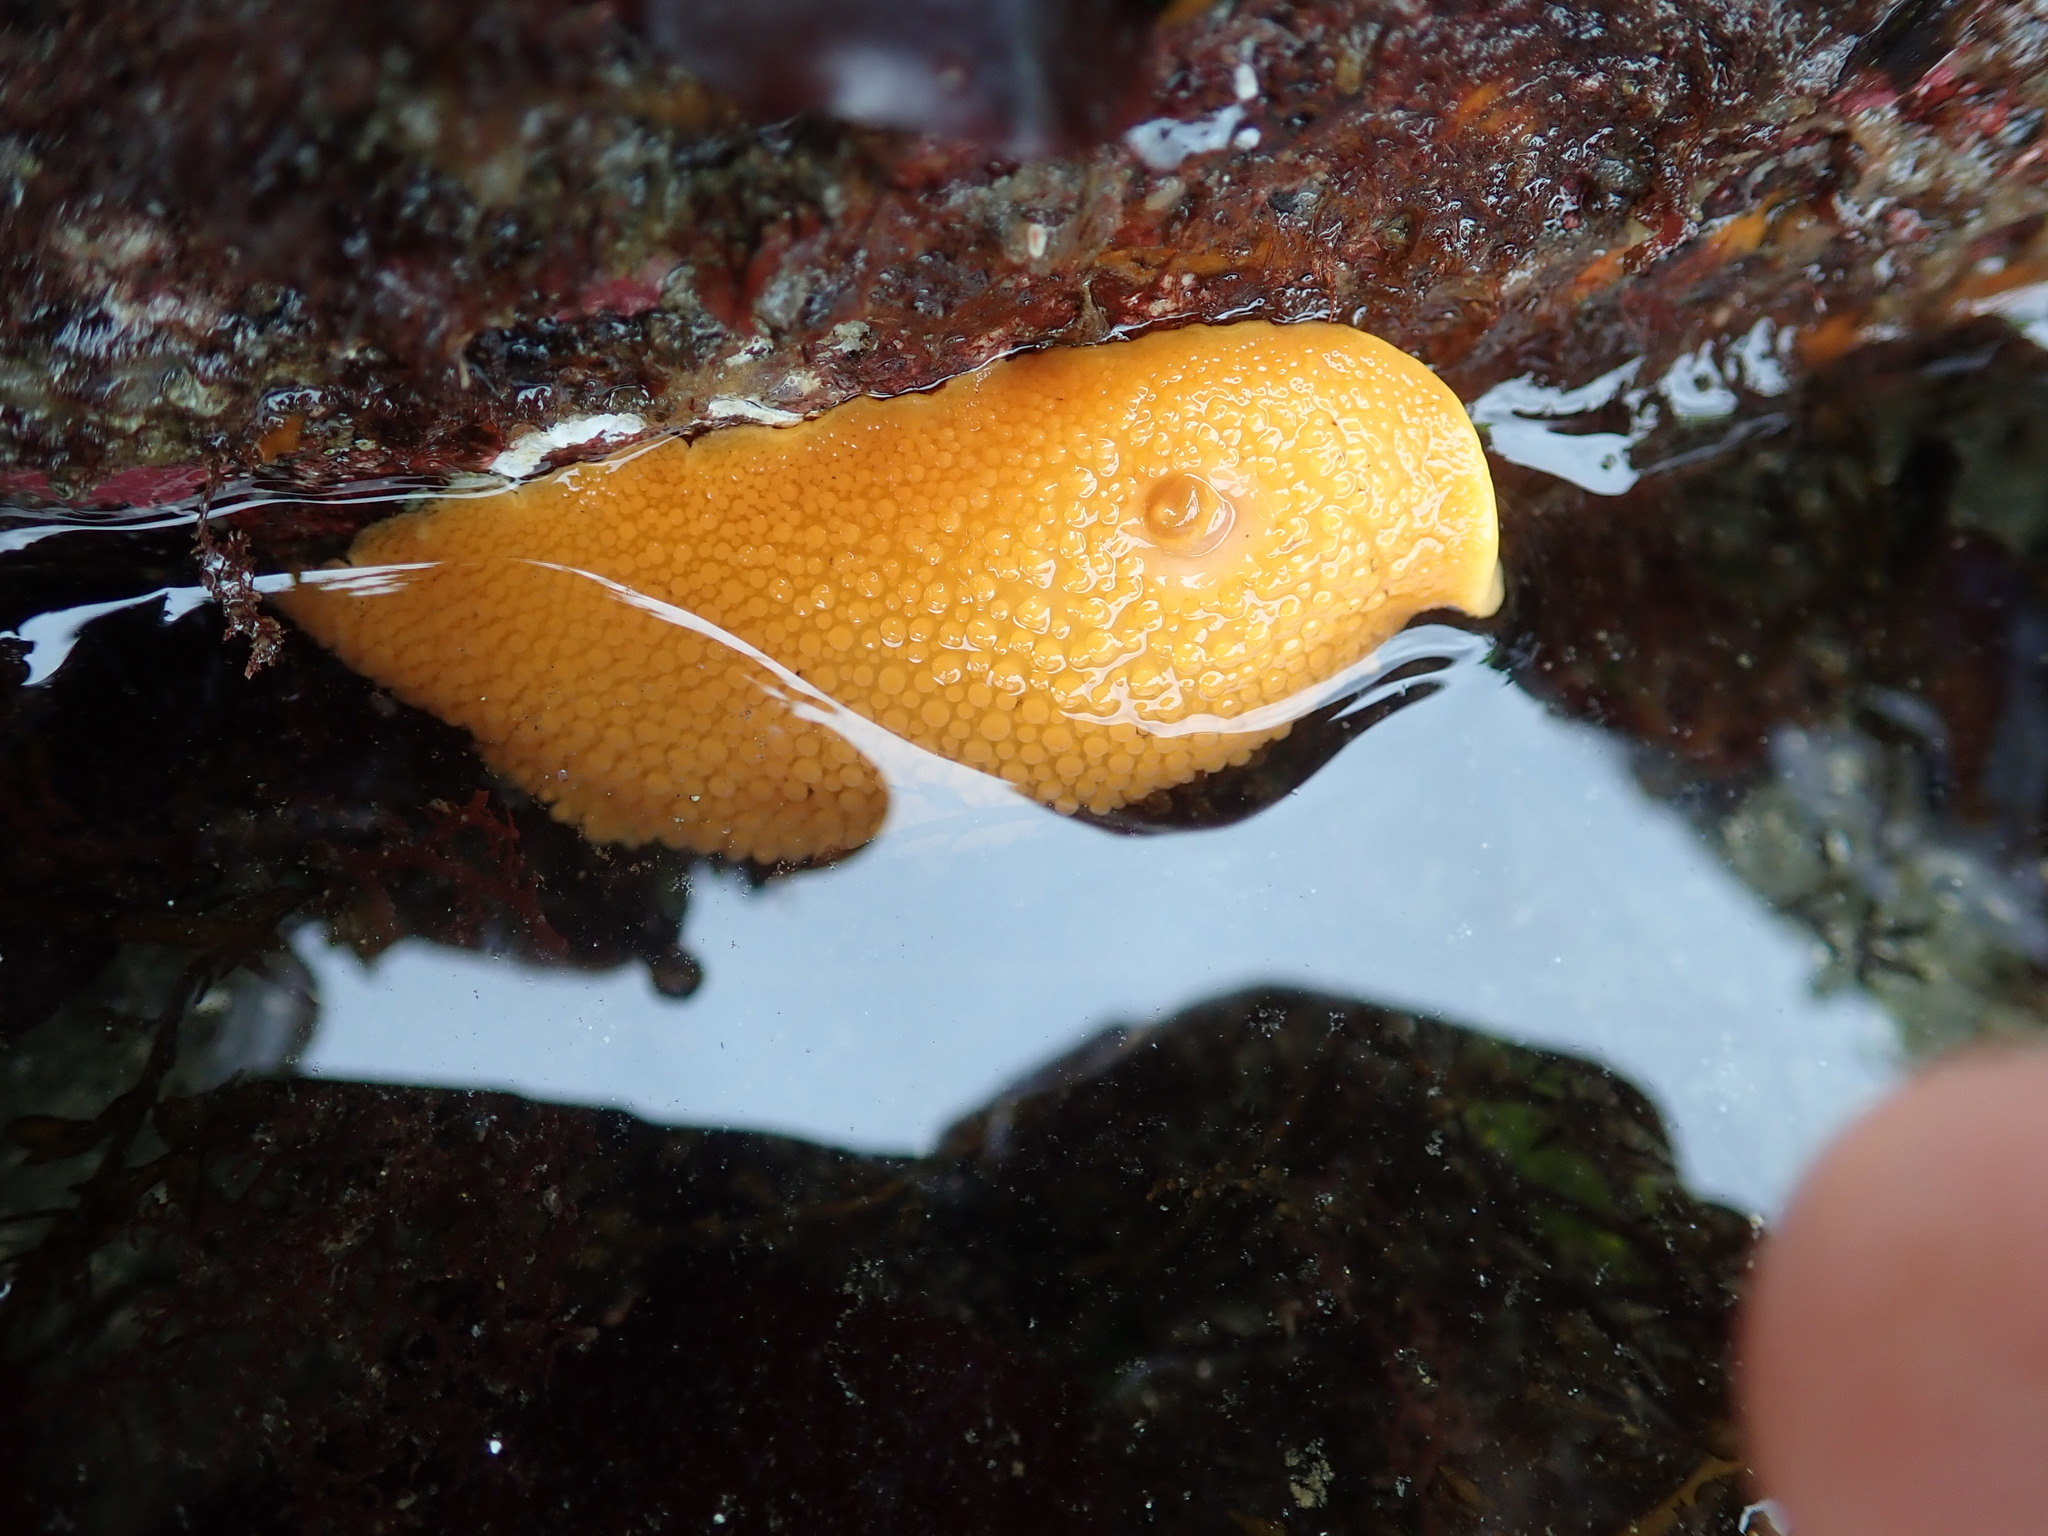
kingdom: Animalia
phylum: Mollusca
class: Gastropoda
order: Nudibranchia
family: Discodorididae
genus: Peltodoris
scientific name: Peltodoris nobilis
